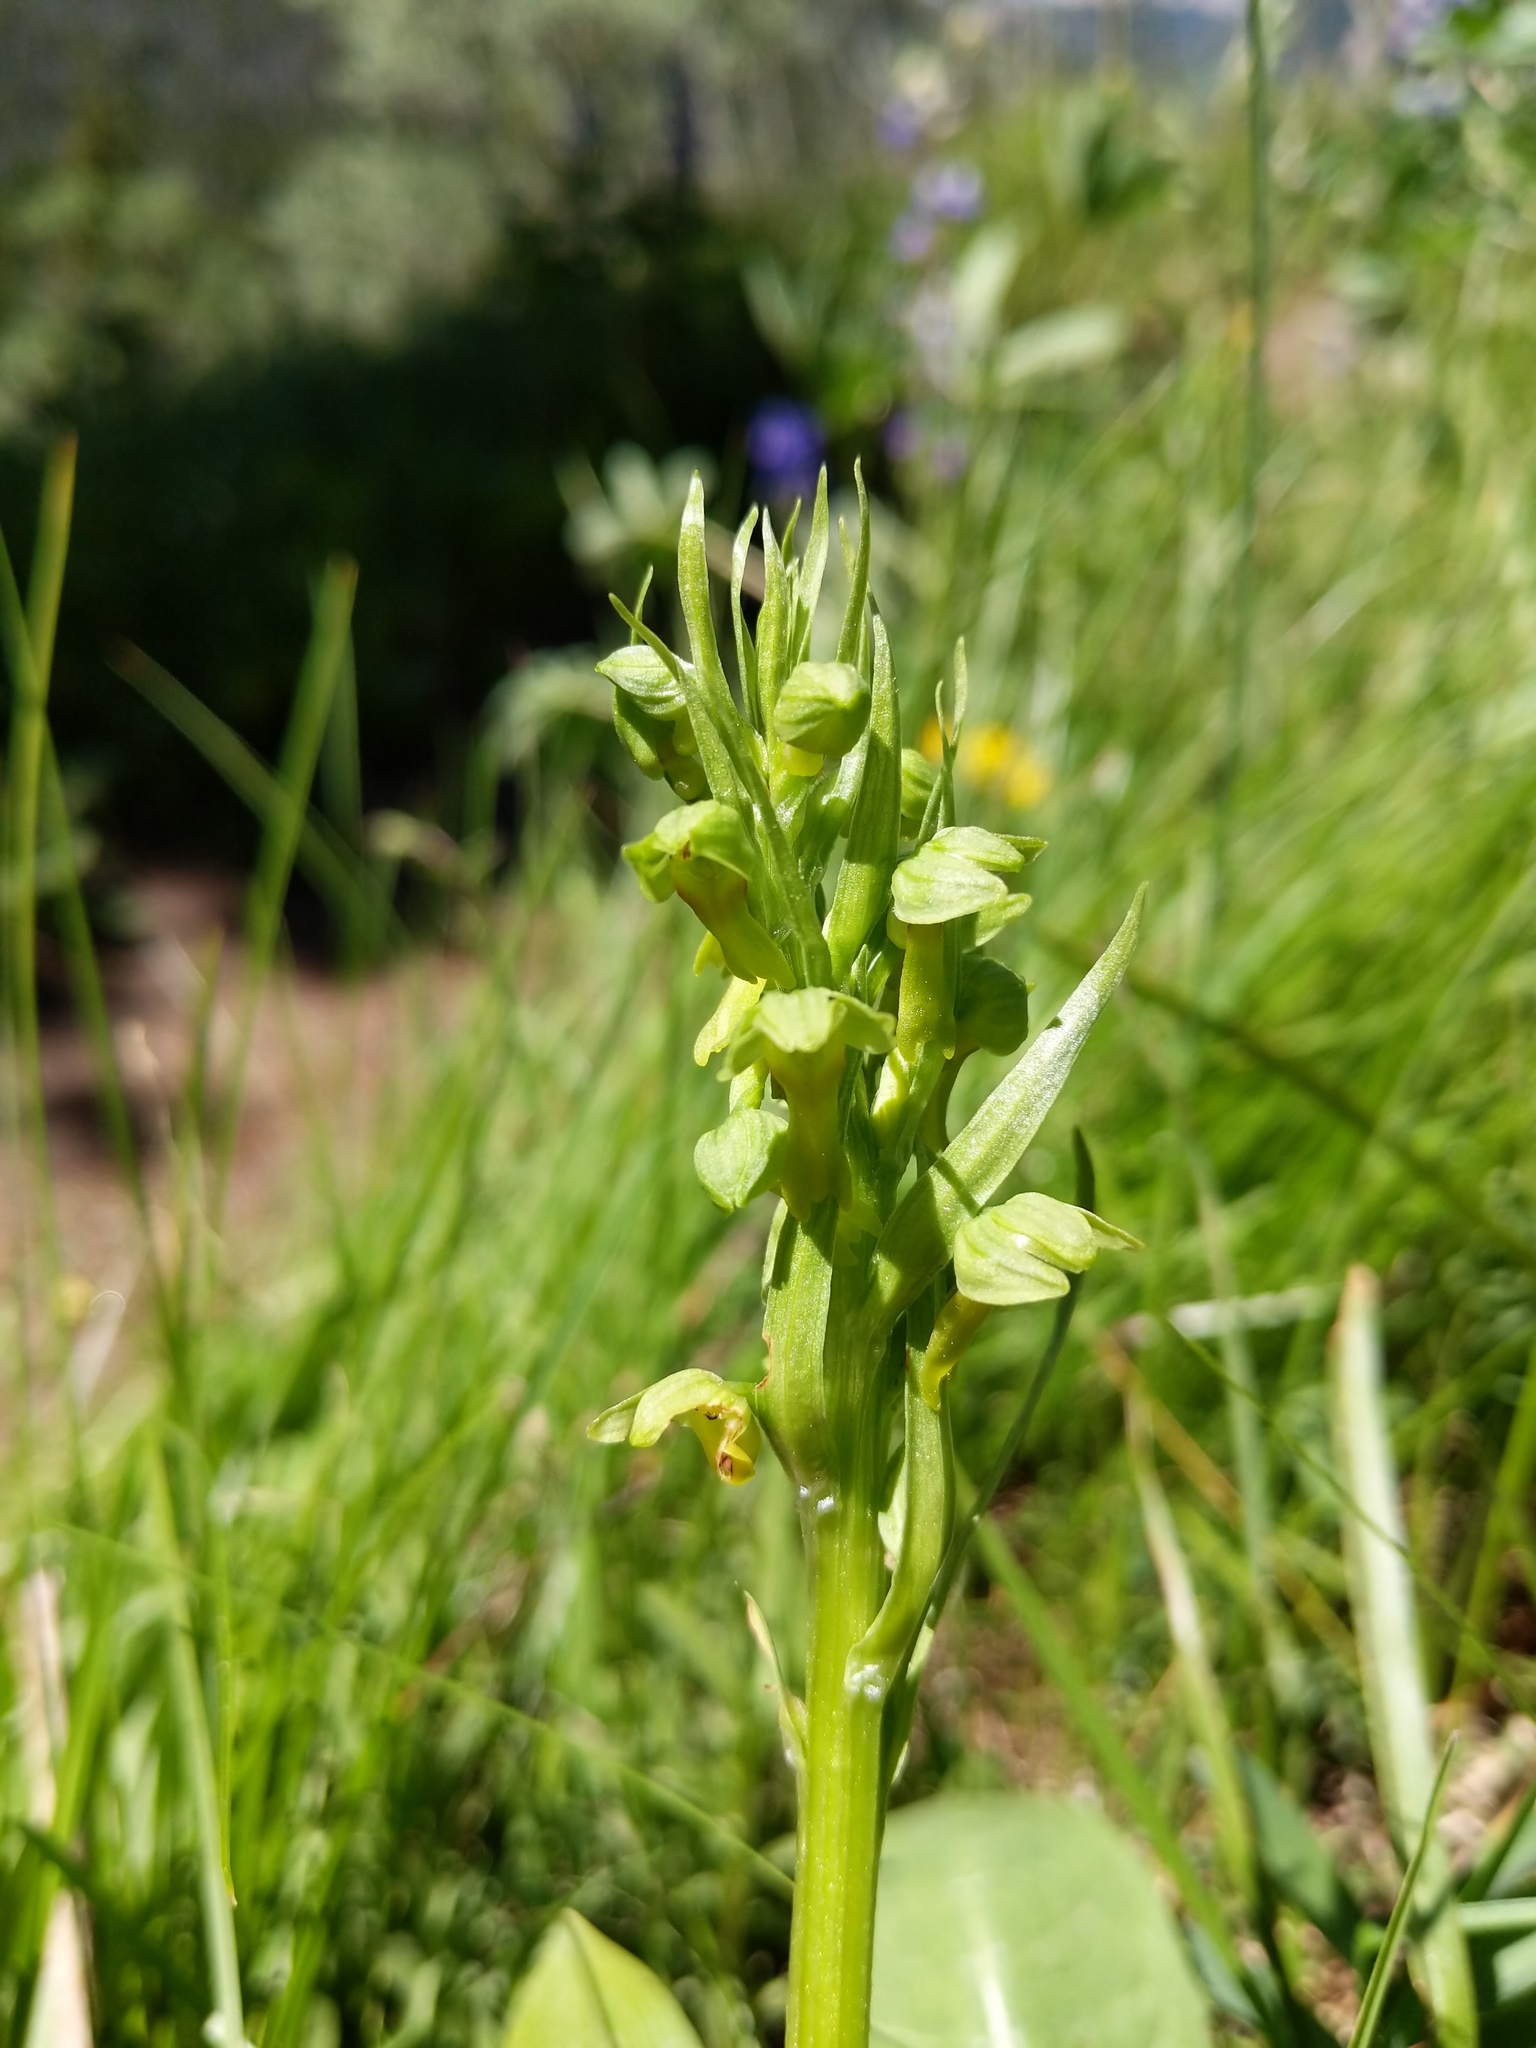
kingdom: Plantae
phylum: Tracheophyta
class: Liliopsida
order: Asparagales
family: Orchidaceae
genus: Dactylorhiza
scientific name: Dactylorhiza viridis
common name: Longbract frog orchid
